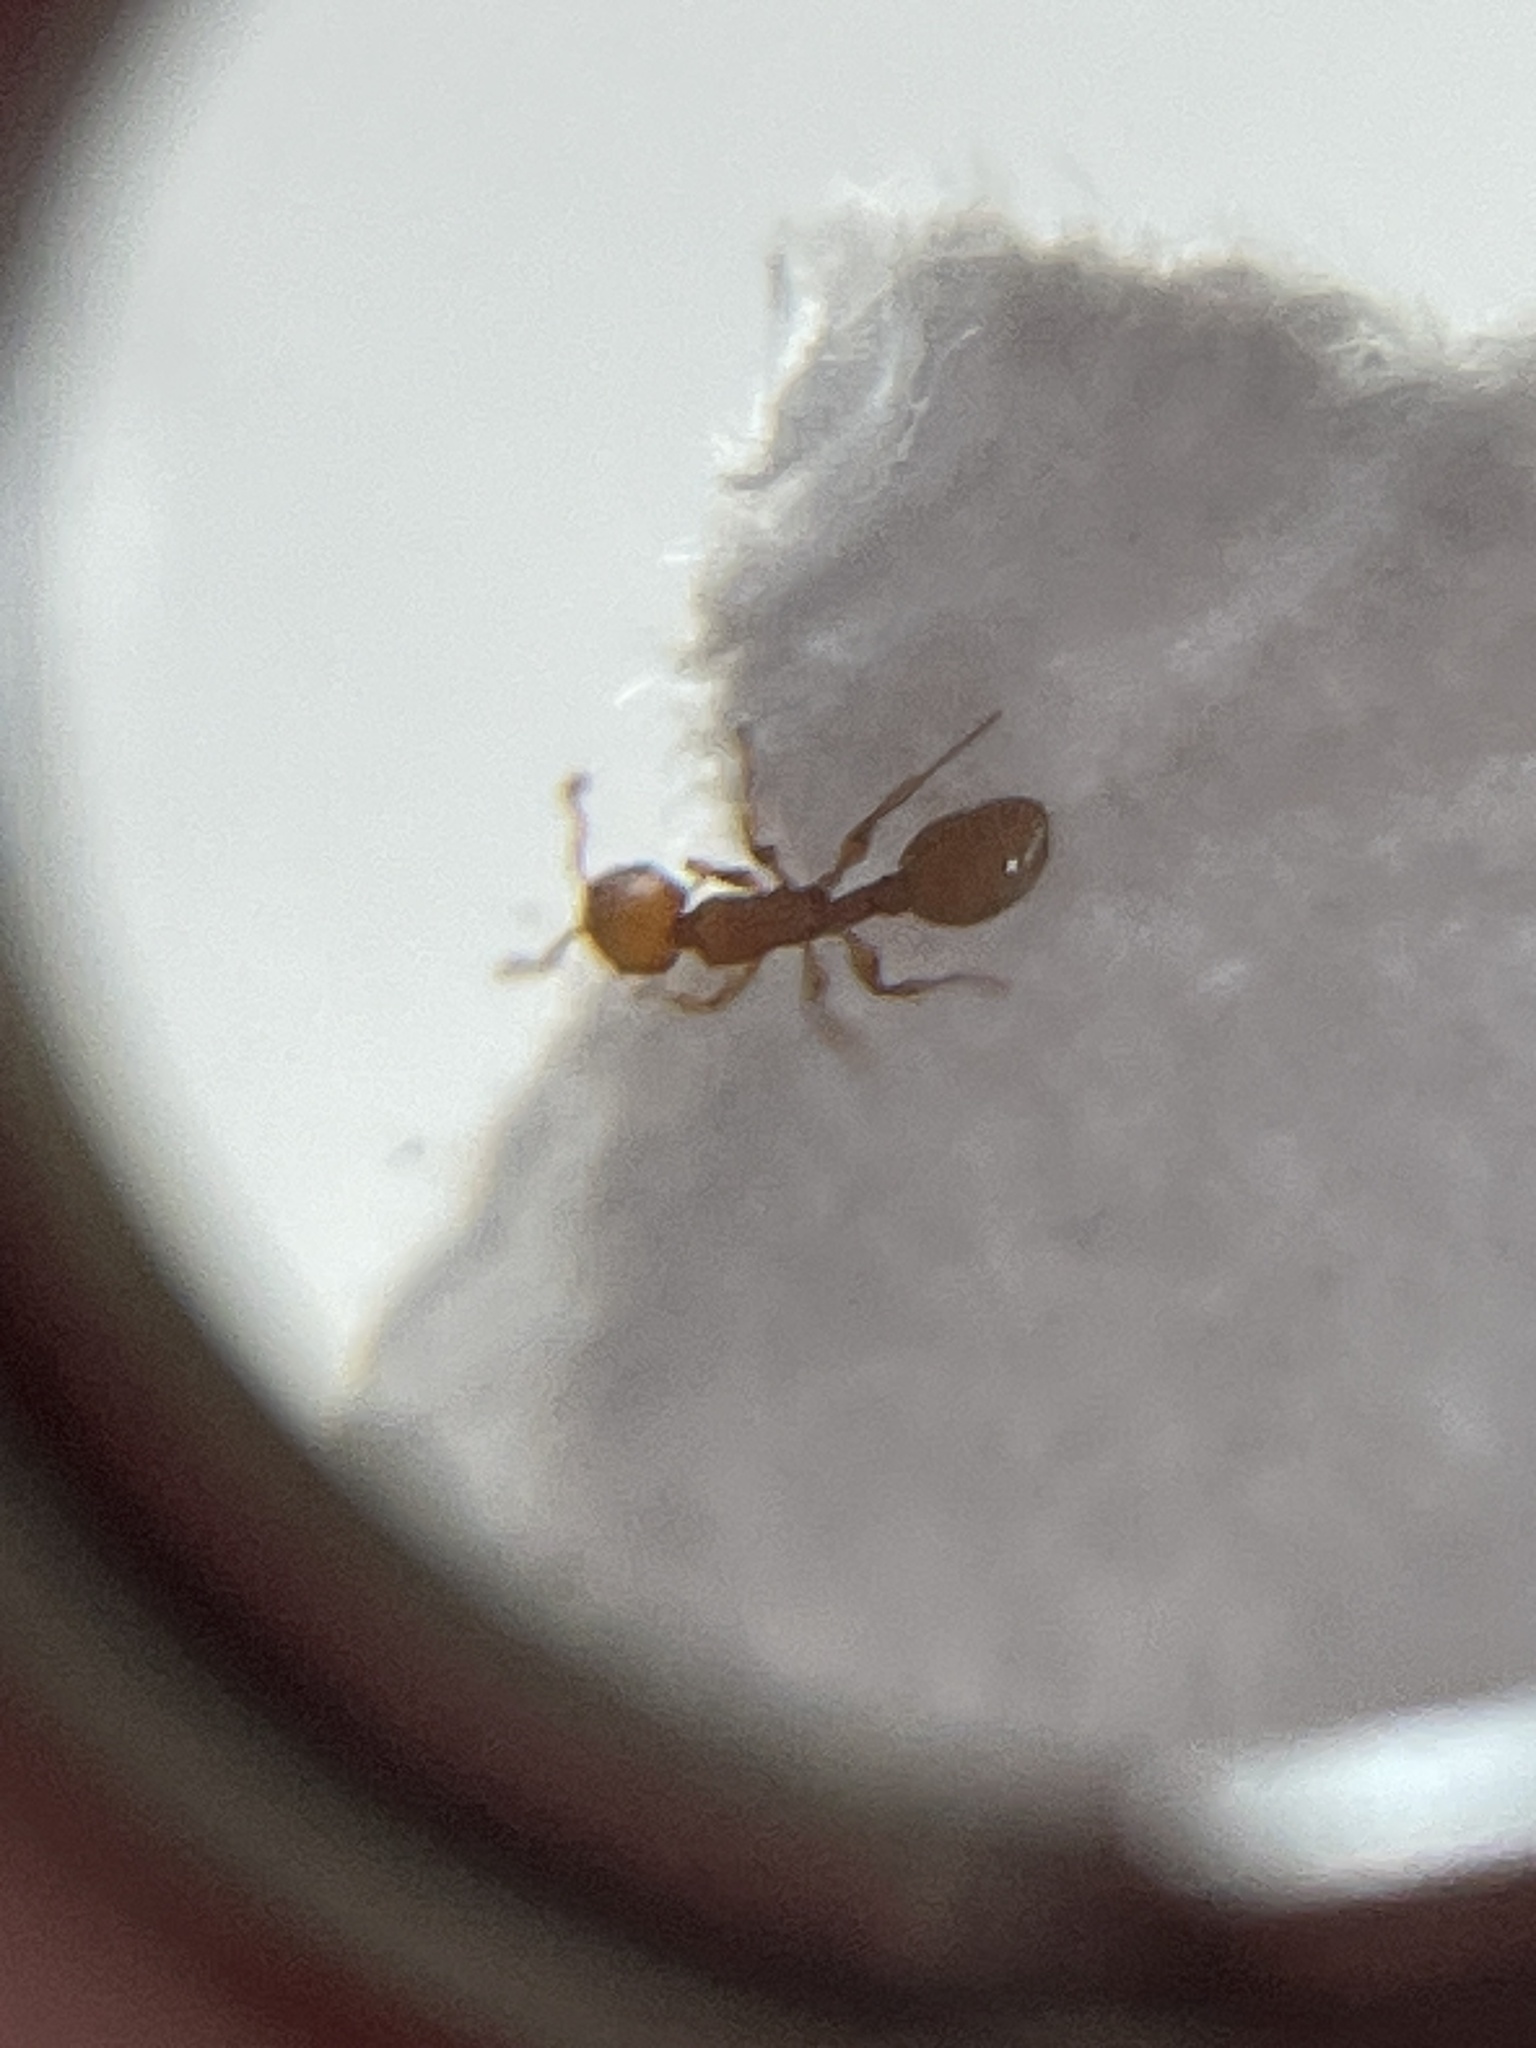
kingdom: Animalia
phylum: Arthropoda
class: Insecta
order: Hymenoptera
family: Formicidae
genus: Temnothorax
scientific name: Temnothorax ambiguus
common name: Doubtful acorn ant
